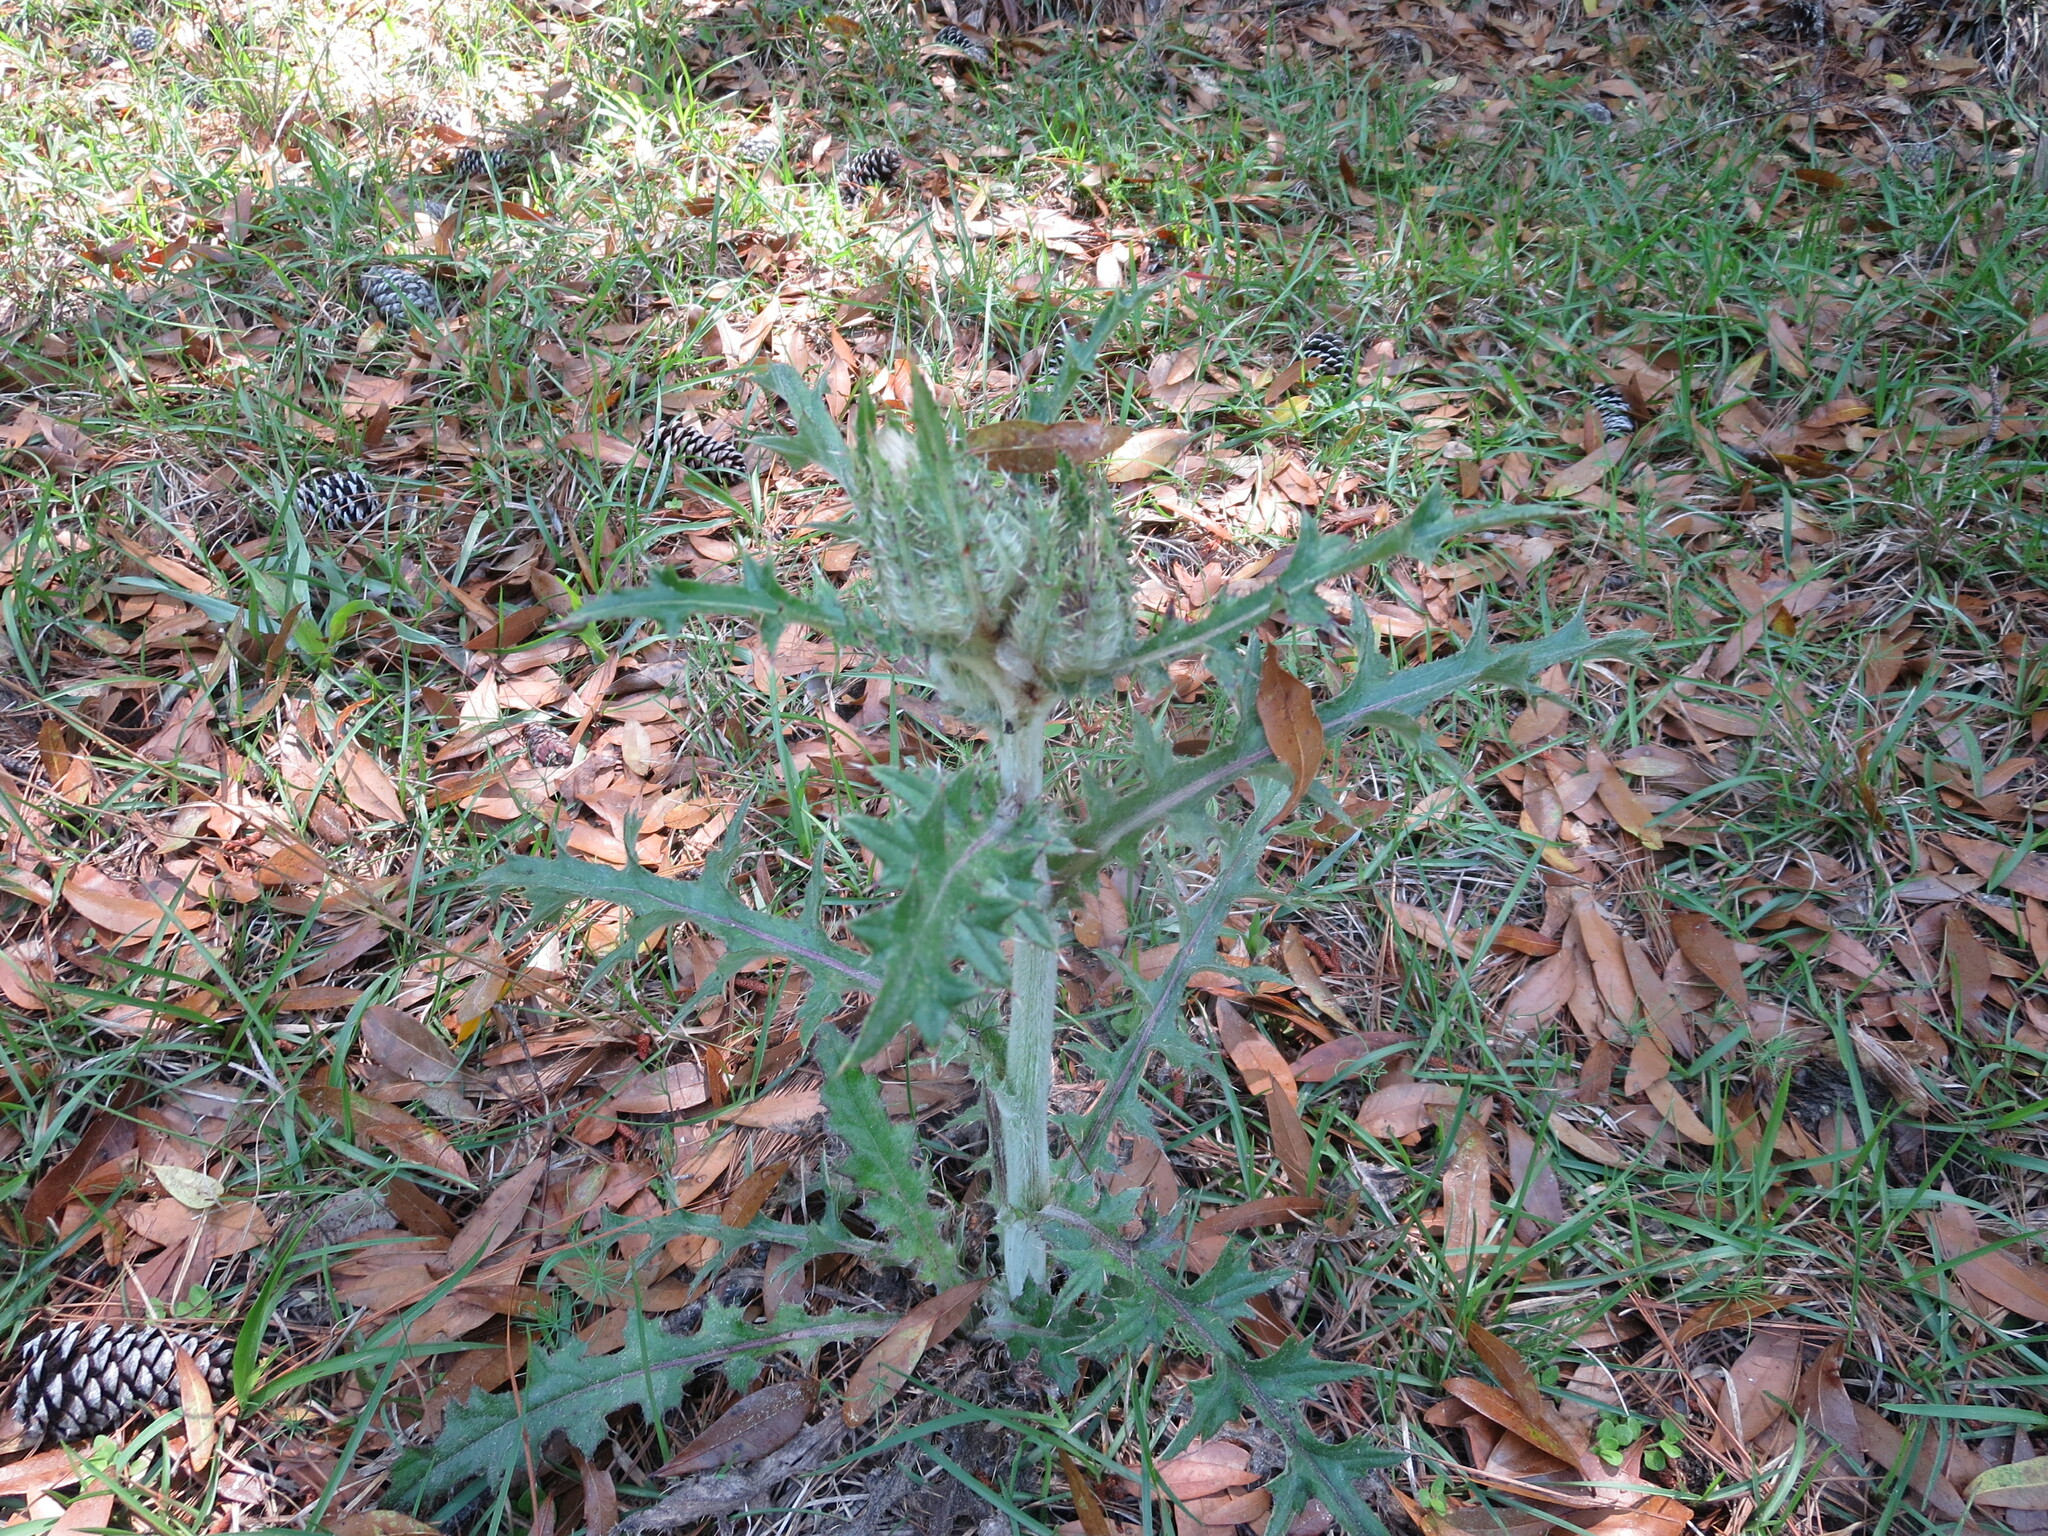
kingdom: Plantae
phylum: Tracheophyta
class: Magnoliopsida
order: Asterales
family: Asteraceae
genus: Cirsium
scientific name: Cirsium horridulum
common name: Bristly thistle
